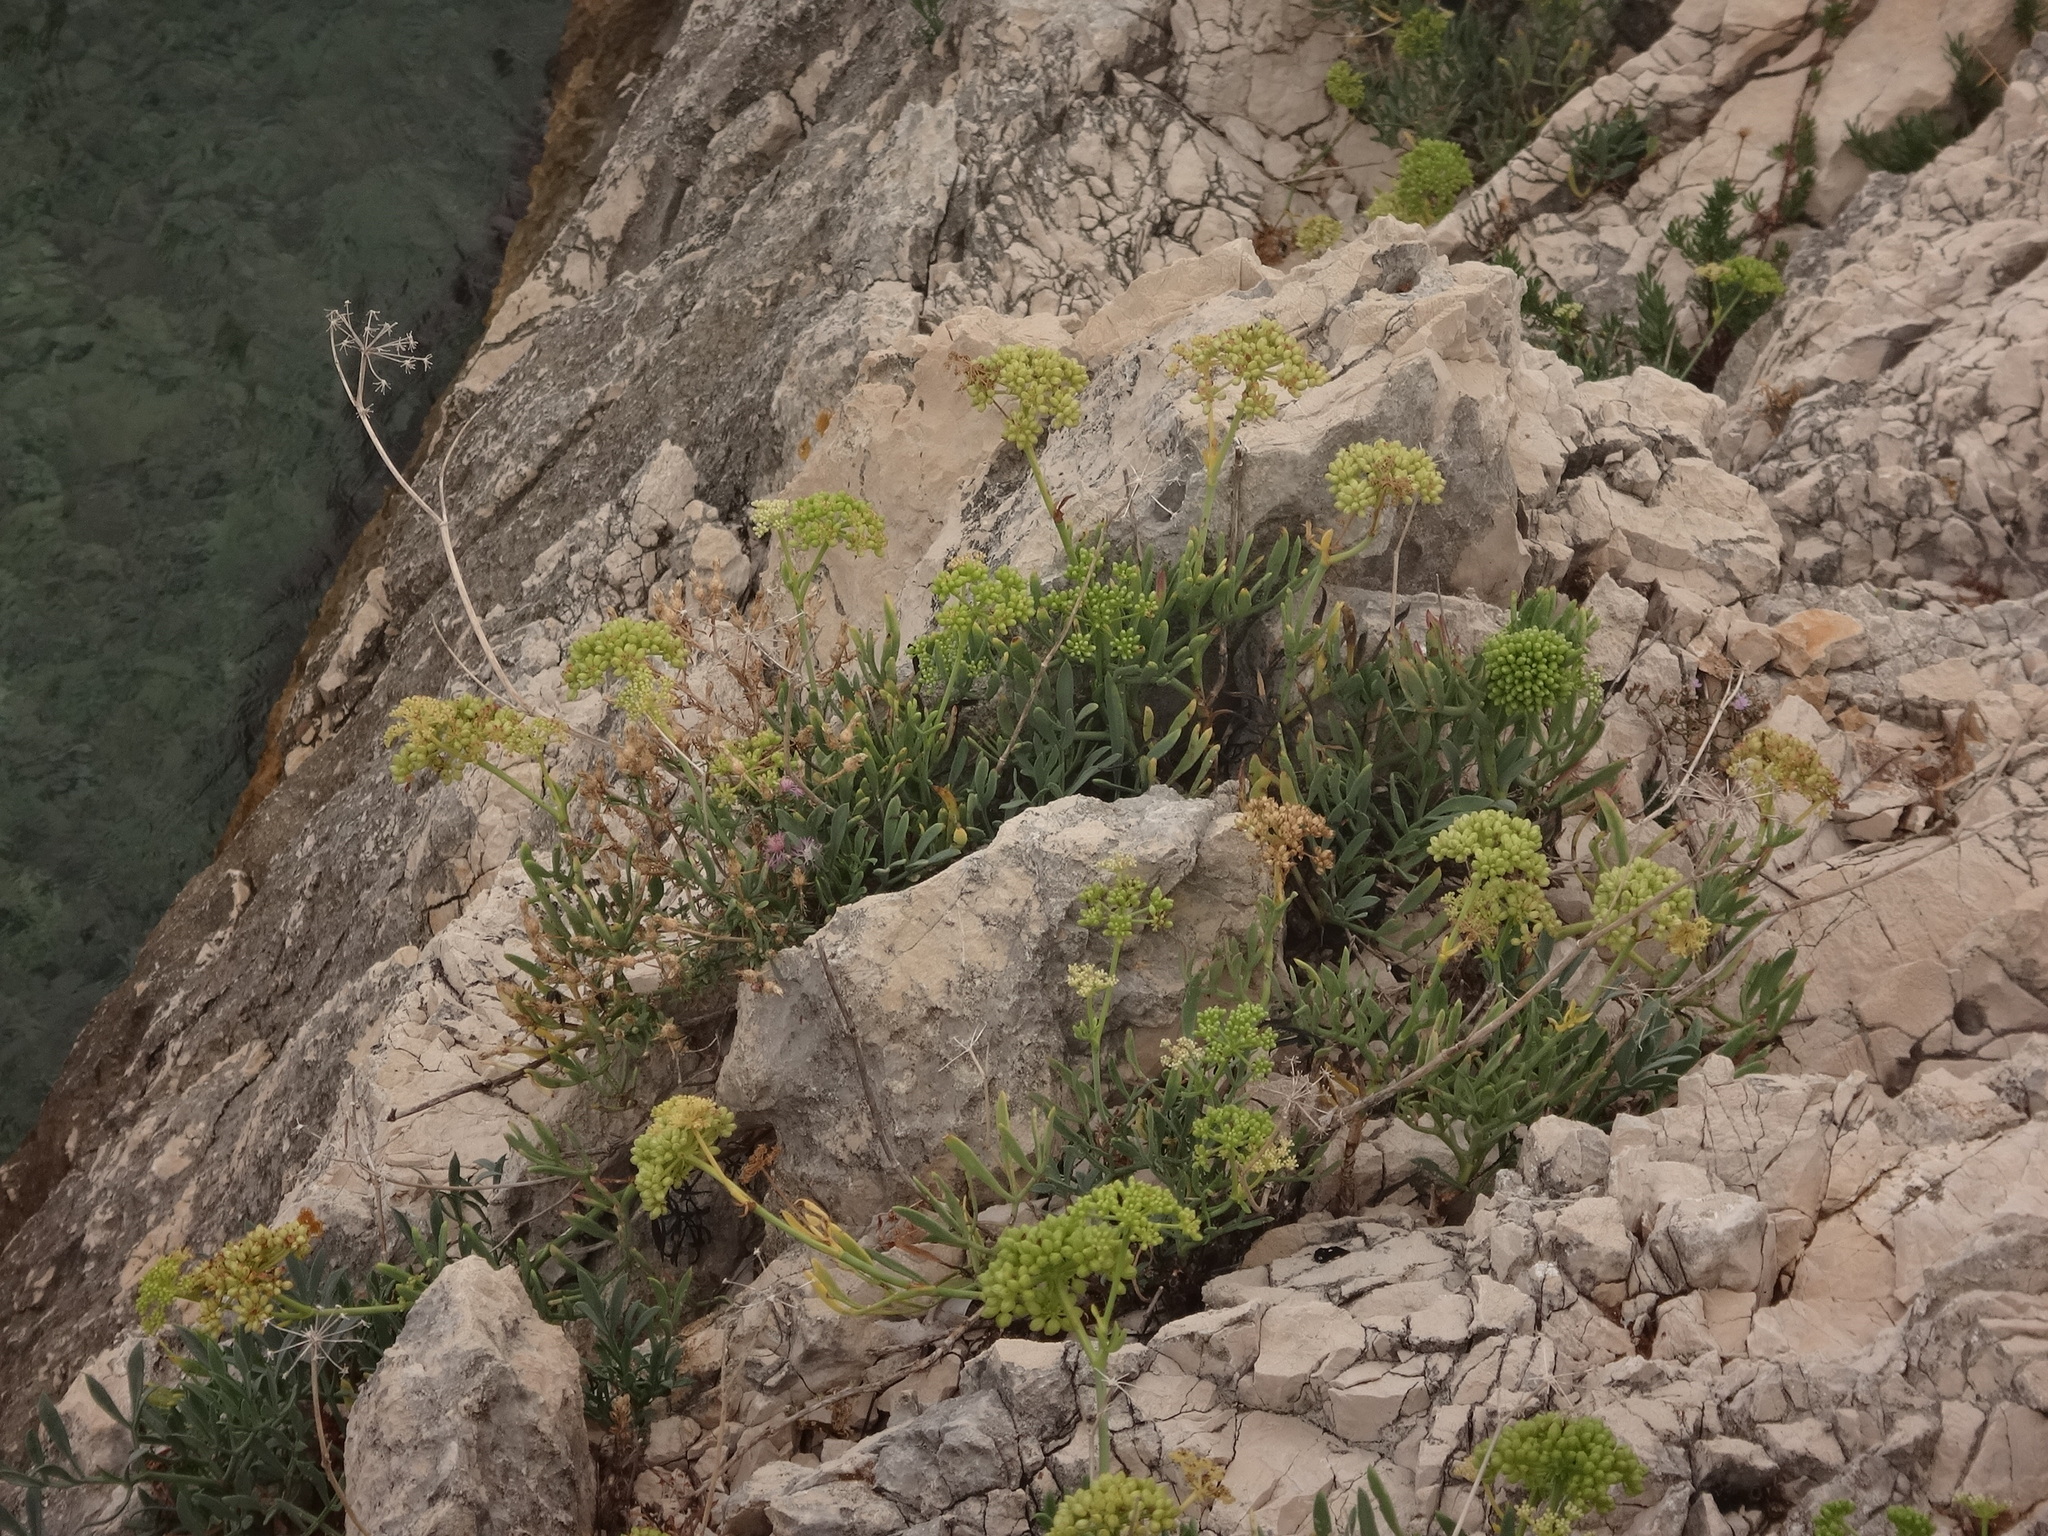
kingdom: Plantae
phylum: Tracheophyta
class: Magnoliopsida
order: Apiales
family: Apiaceae
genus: Crithmum
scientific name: Crithmum maritimum
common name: Rock samphire
